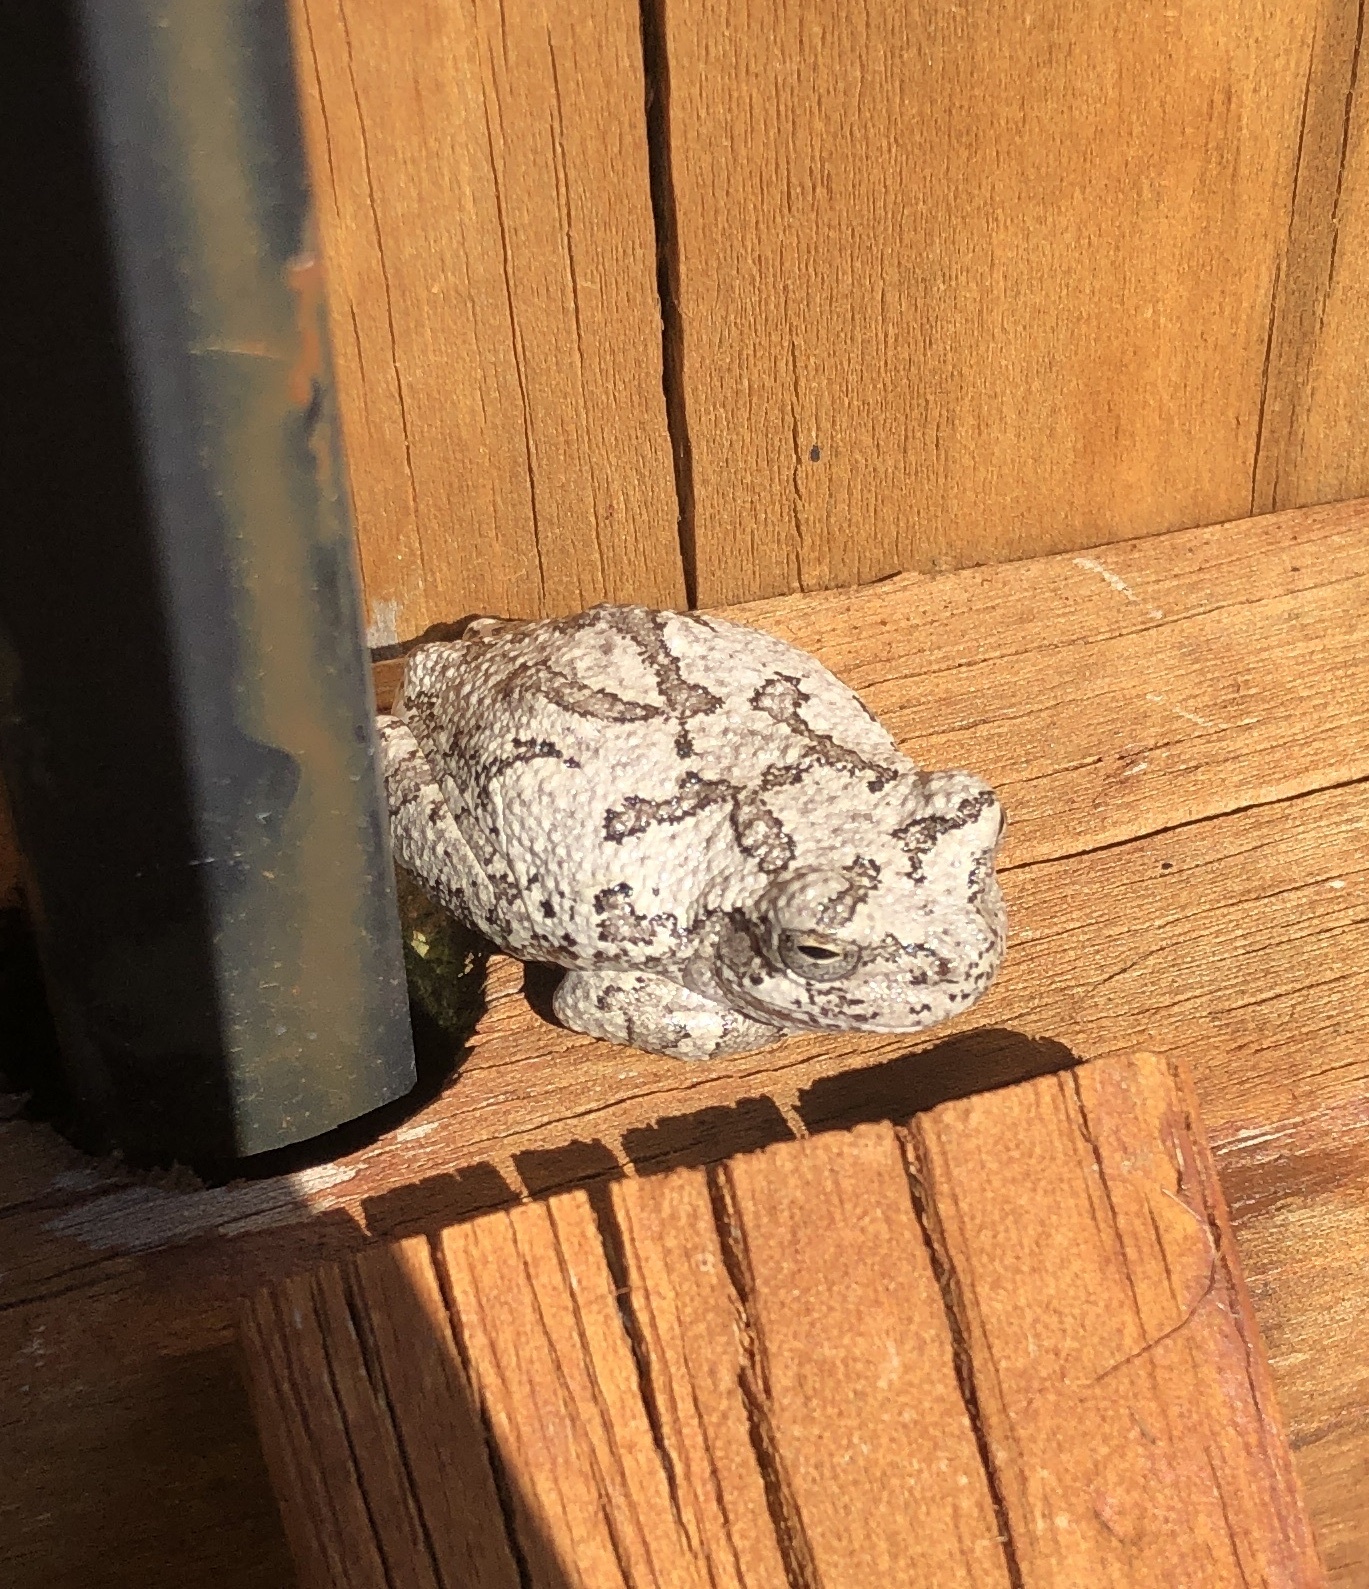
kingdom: Animalia
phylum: Chordata
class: Amphibia
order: Anura
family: Hylidae
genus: Dryophytes
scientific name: Dryophytes chrysoscelis
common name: Cope's gray treefrog
